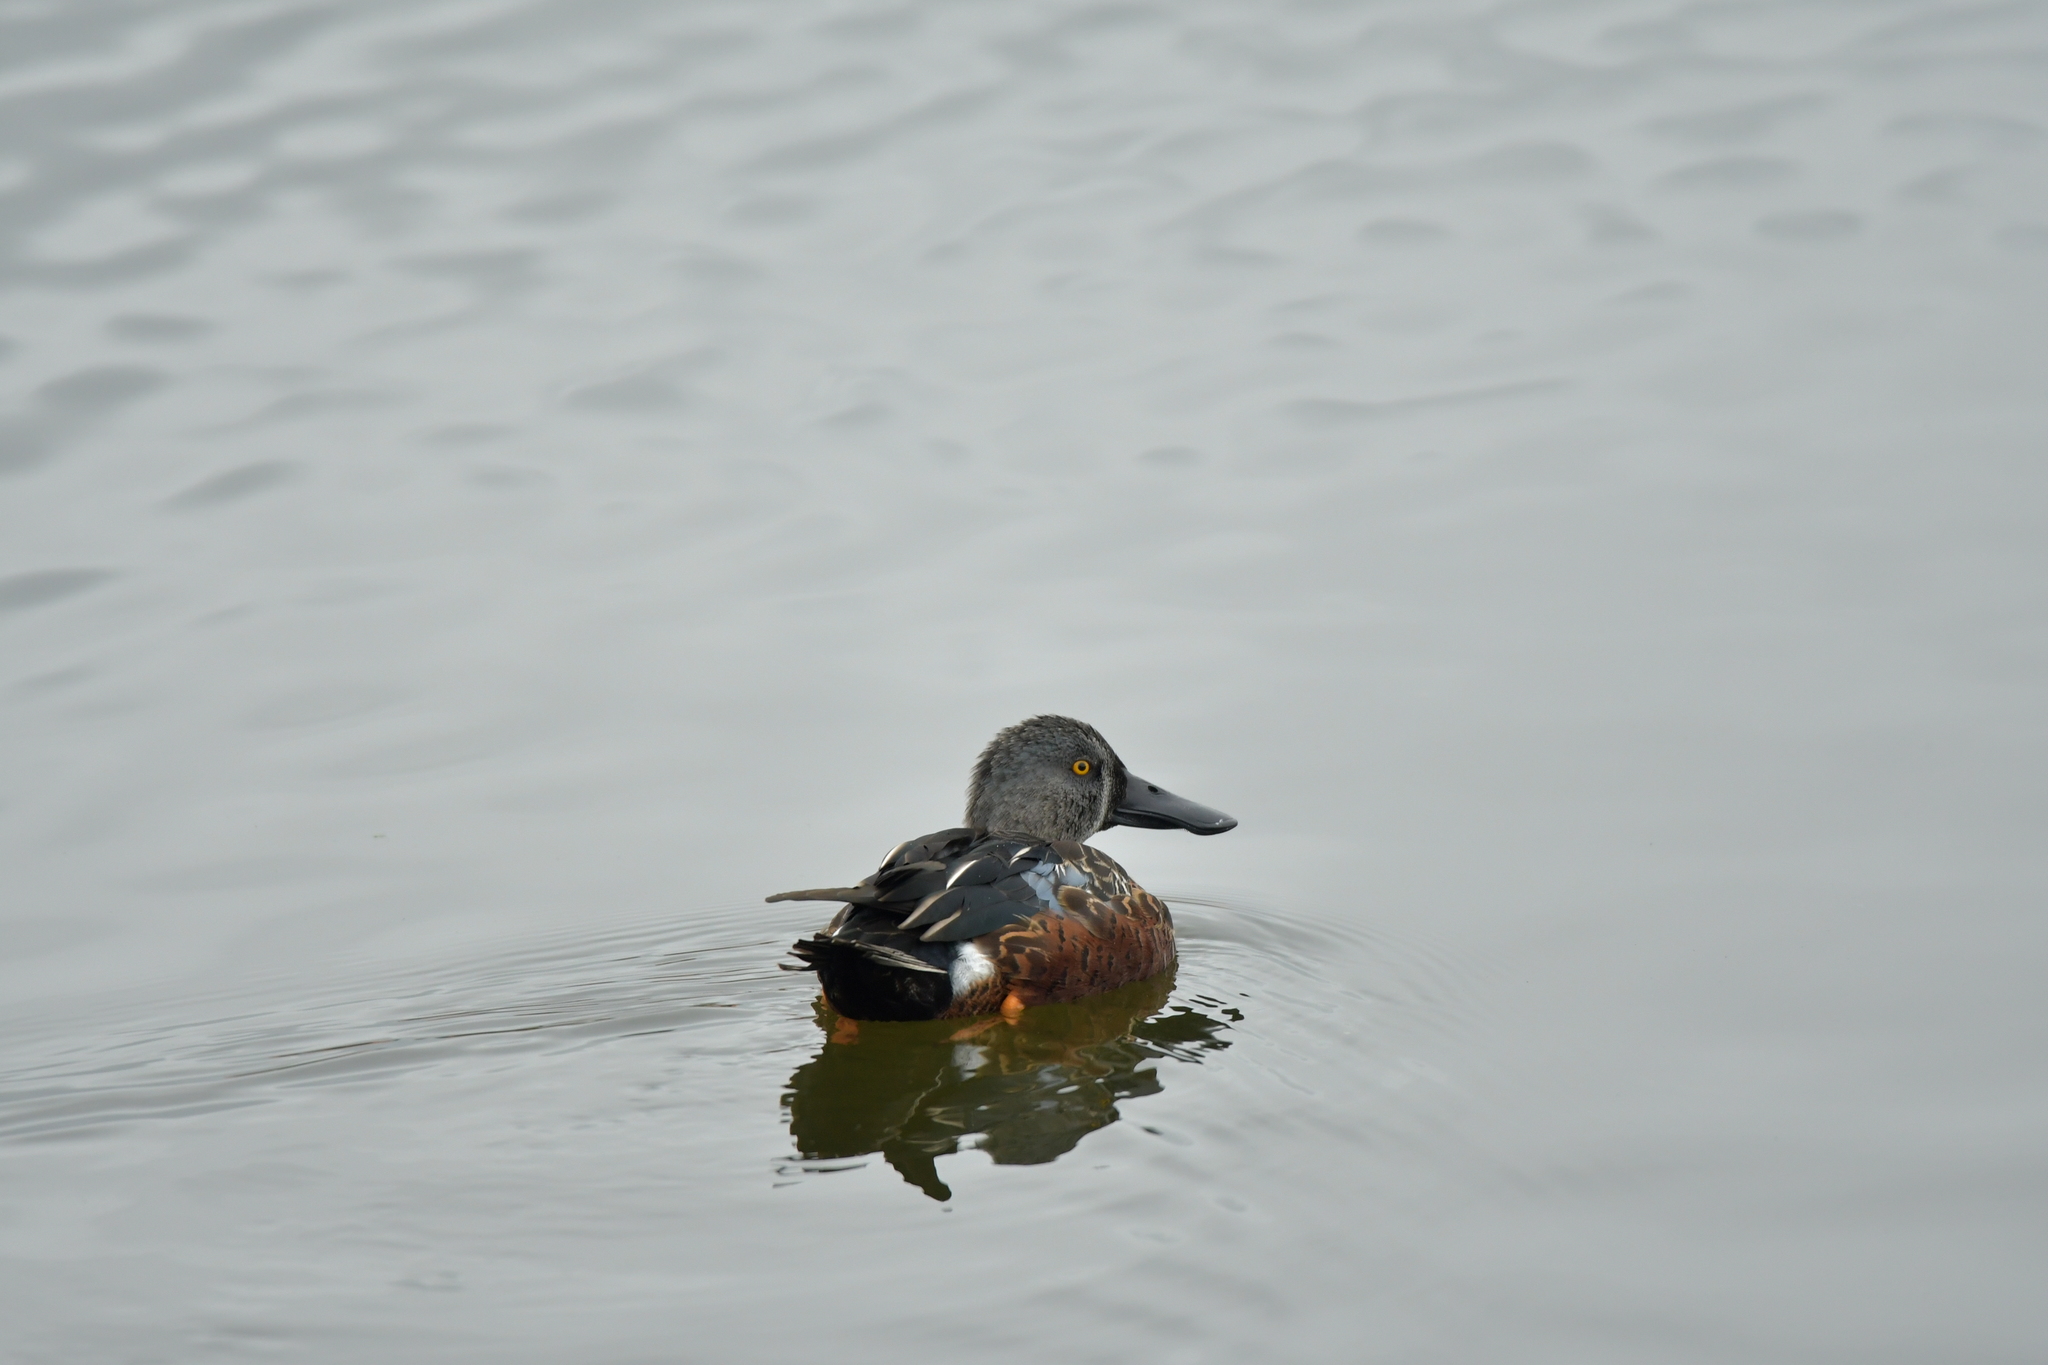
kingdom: Animalia
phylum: Chordata
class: Aves
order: Anseriformes
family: Anatidae
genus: Spatula
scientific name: Spatula rhynchotis
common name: Australian shoveler
